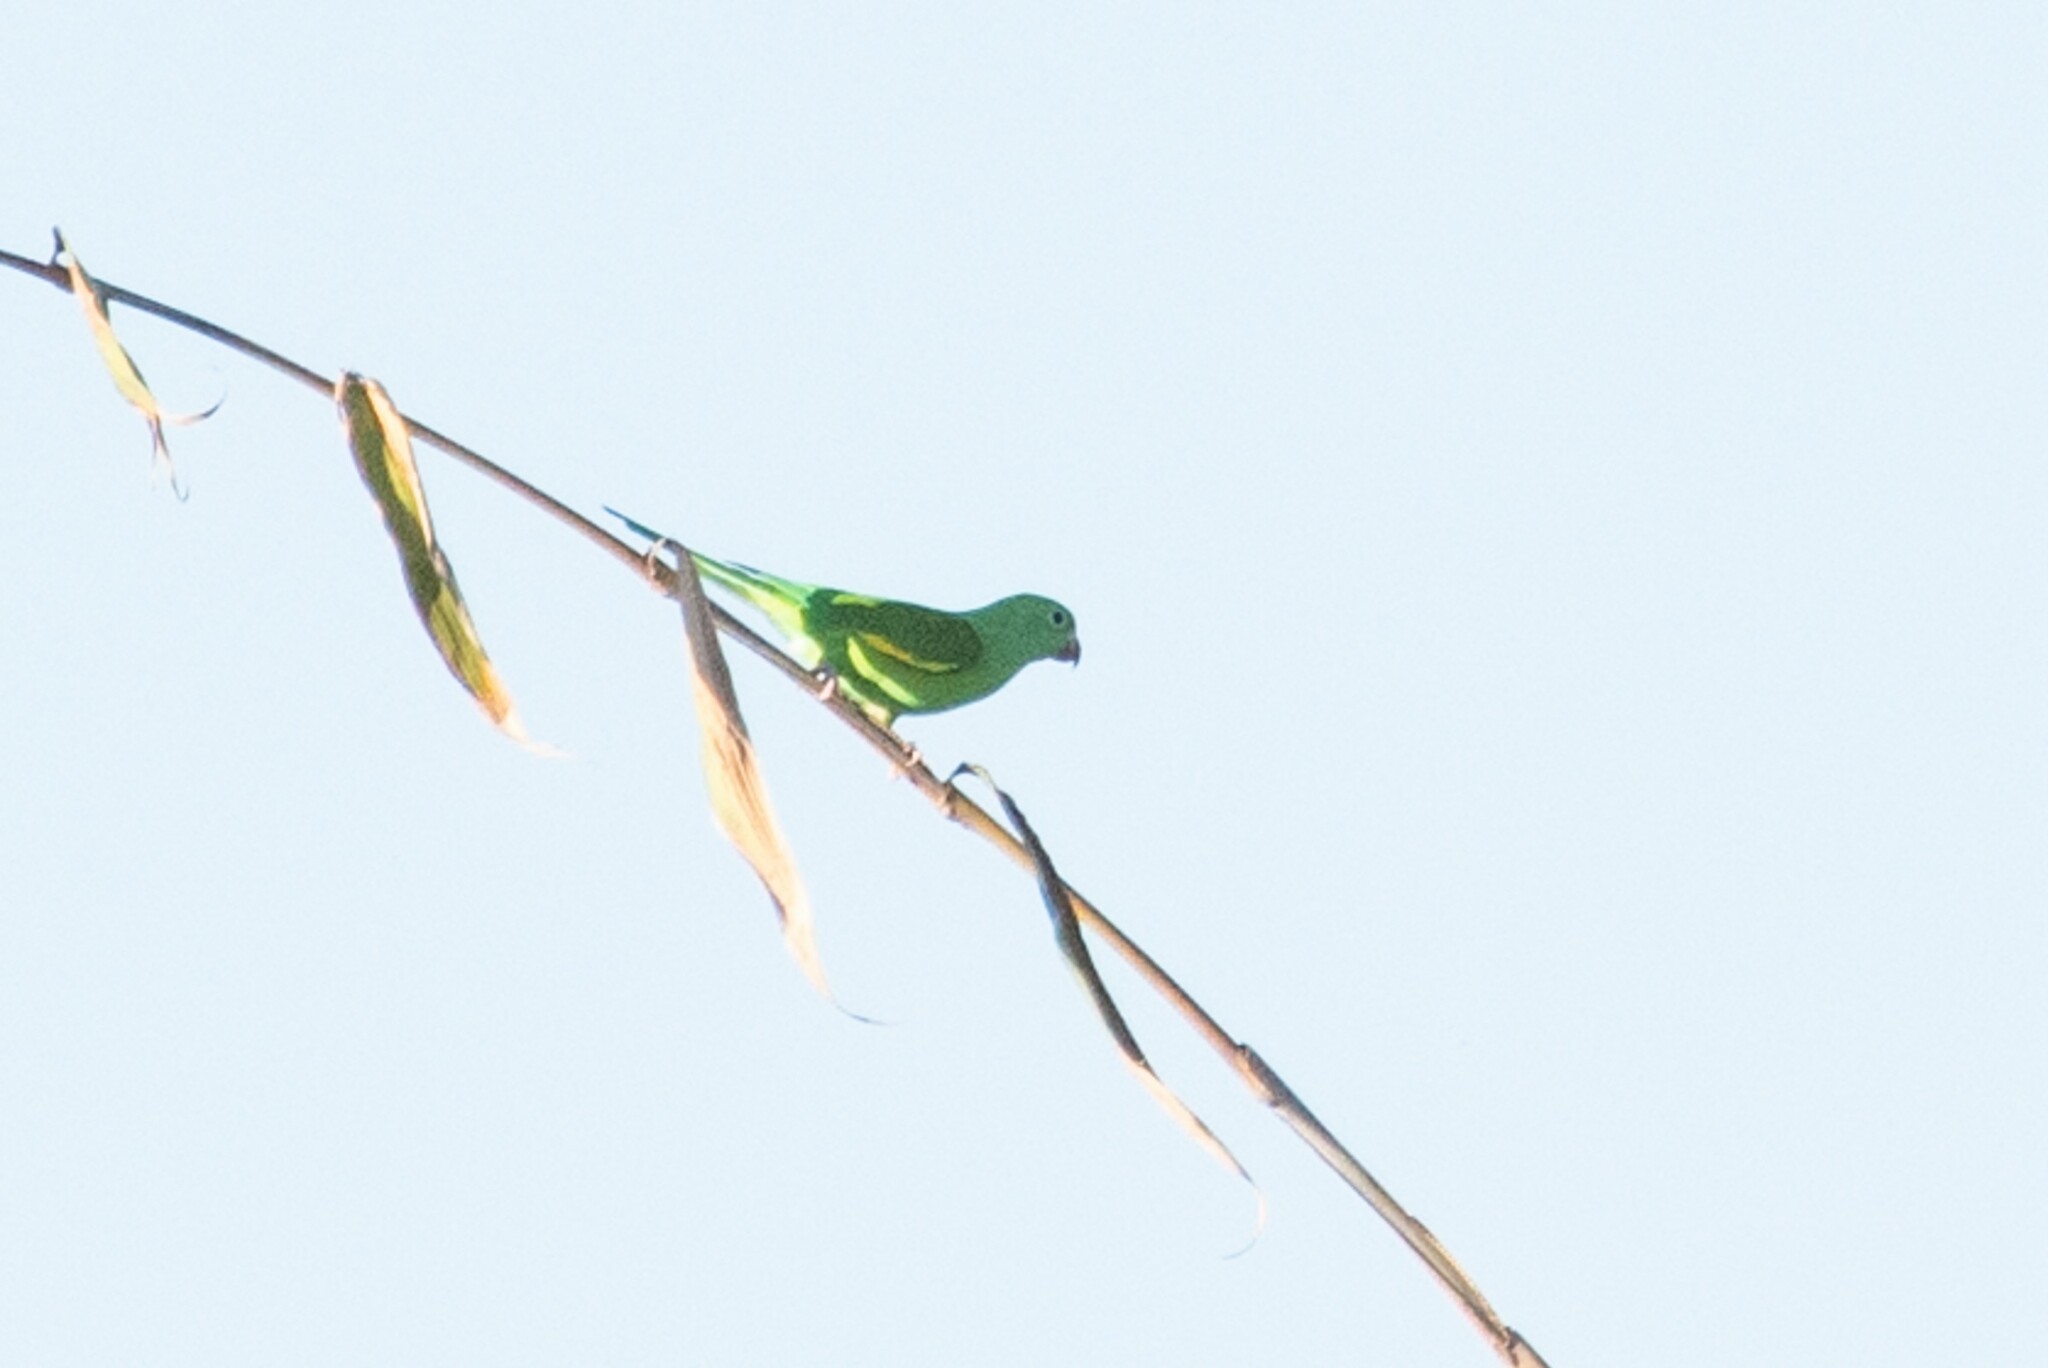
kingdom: Animalia
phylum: Chordata
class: Aves
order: Psittaciformes
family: Psittacidae
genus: Brotogeris
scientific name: Brotogeris chiriri
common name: Yellow-chevroned parakeet
